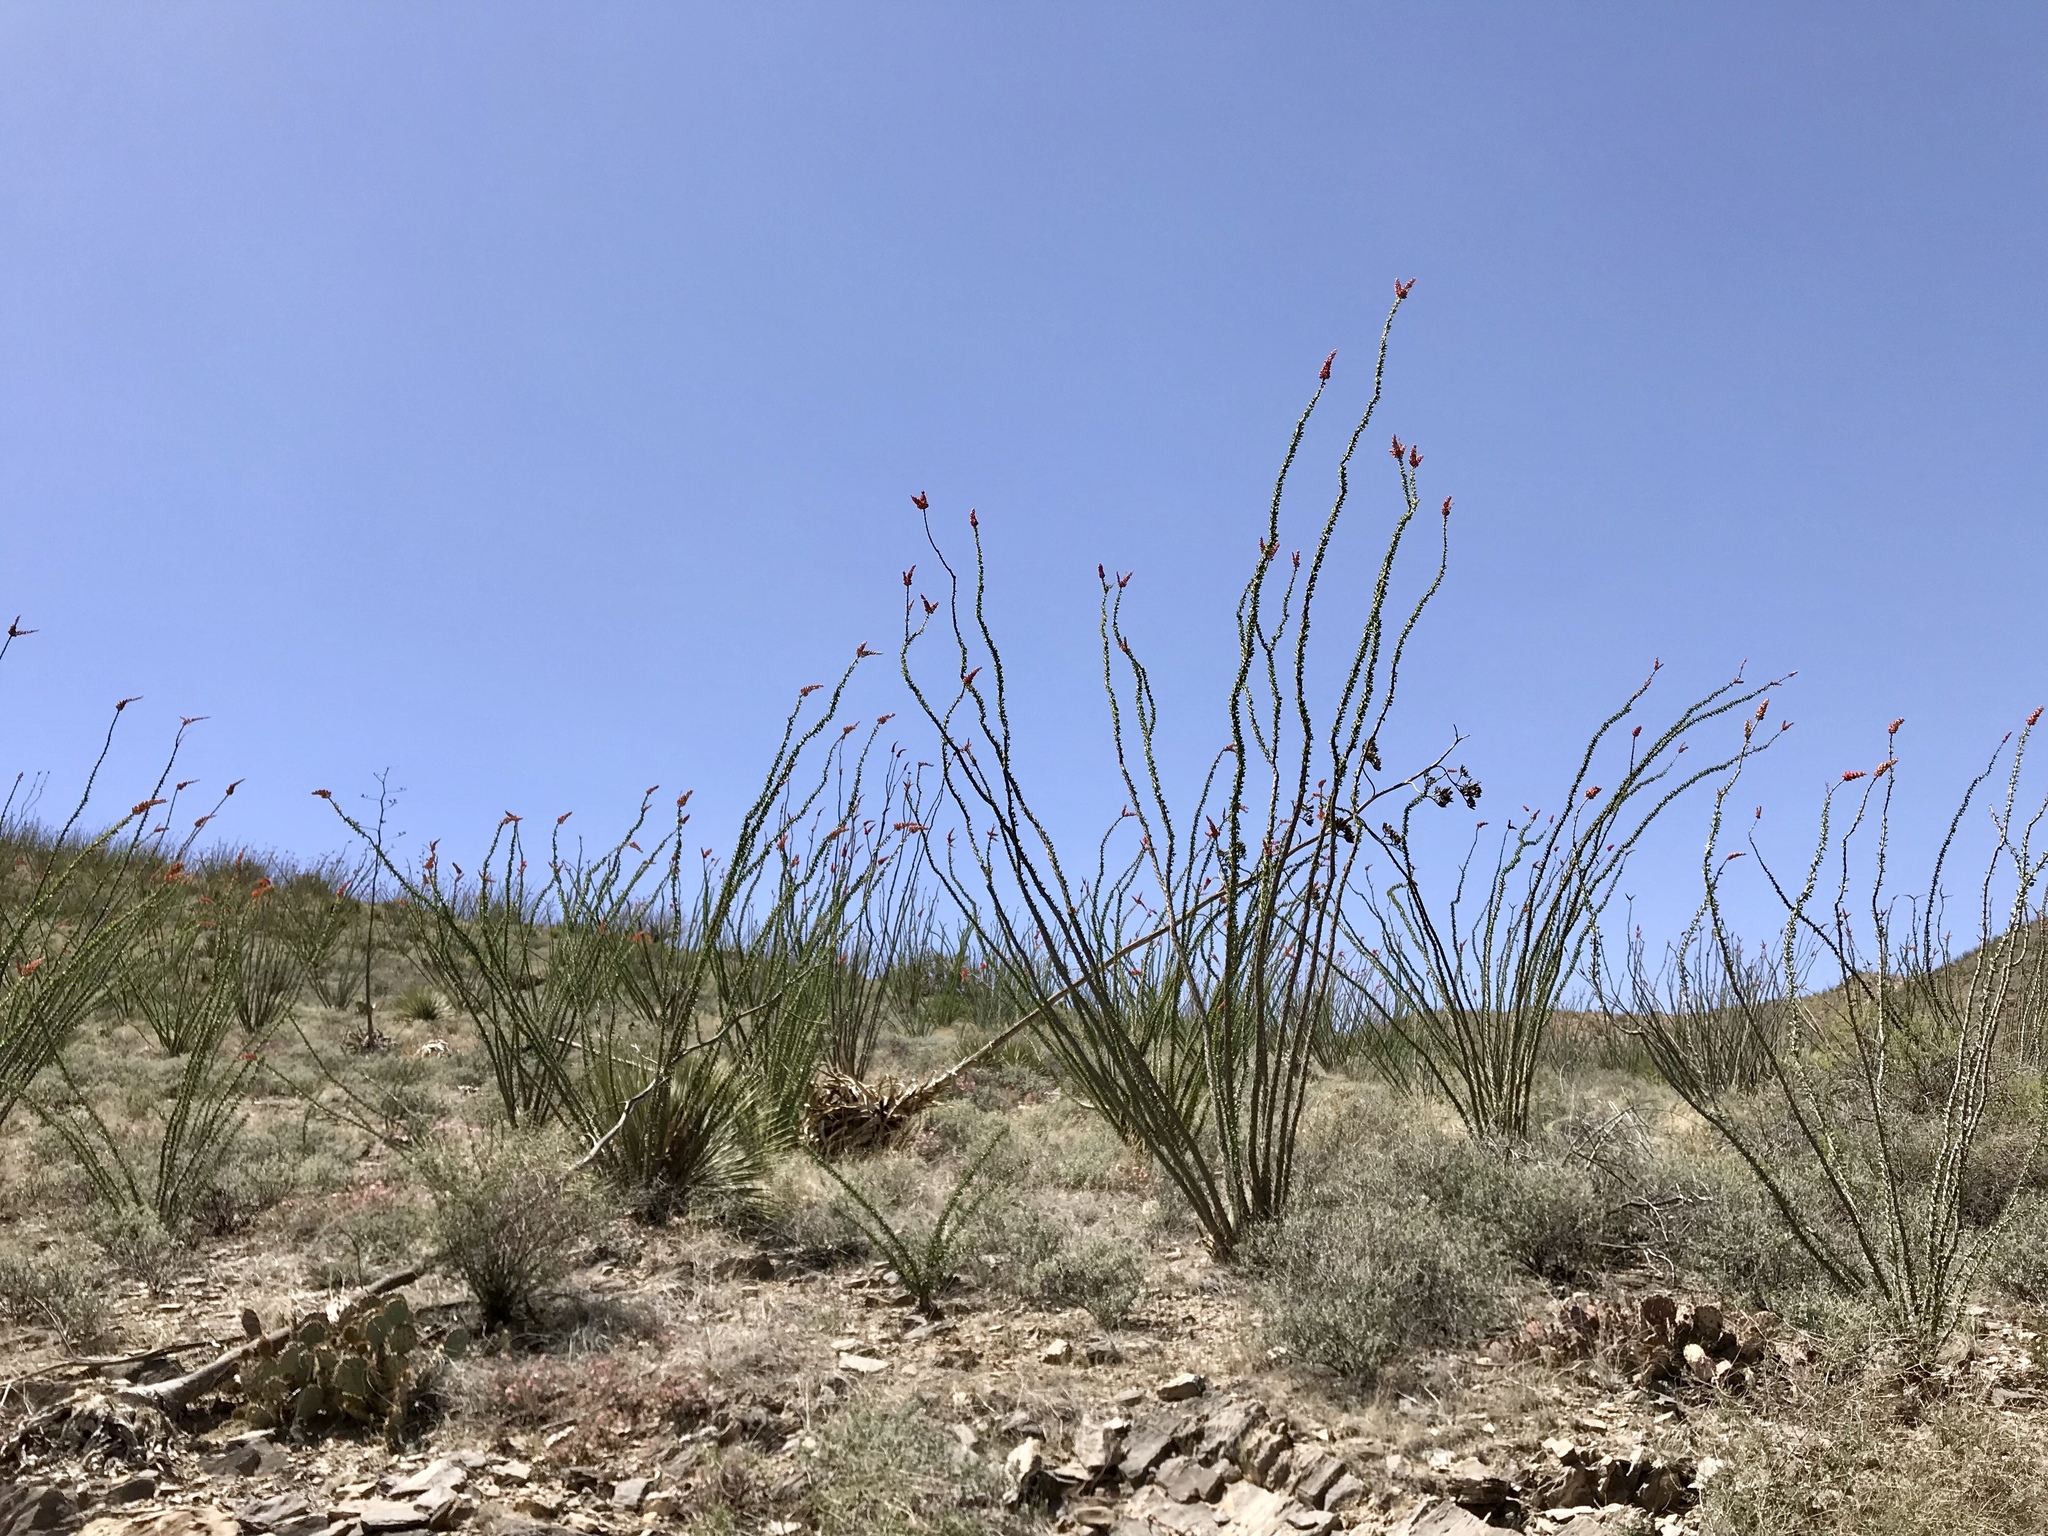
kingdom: Plantae
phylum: Tracheophyta
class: Magnoliopsida
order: Ericales
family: Fouquieriaceae
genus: Fouquieria
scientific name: Fouquieria splendens
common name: Vine-cactus
